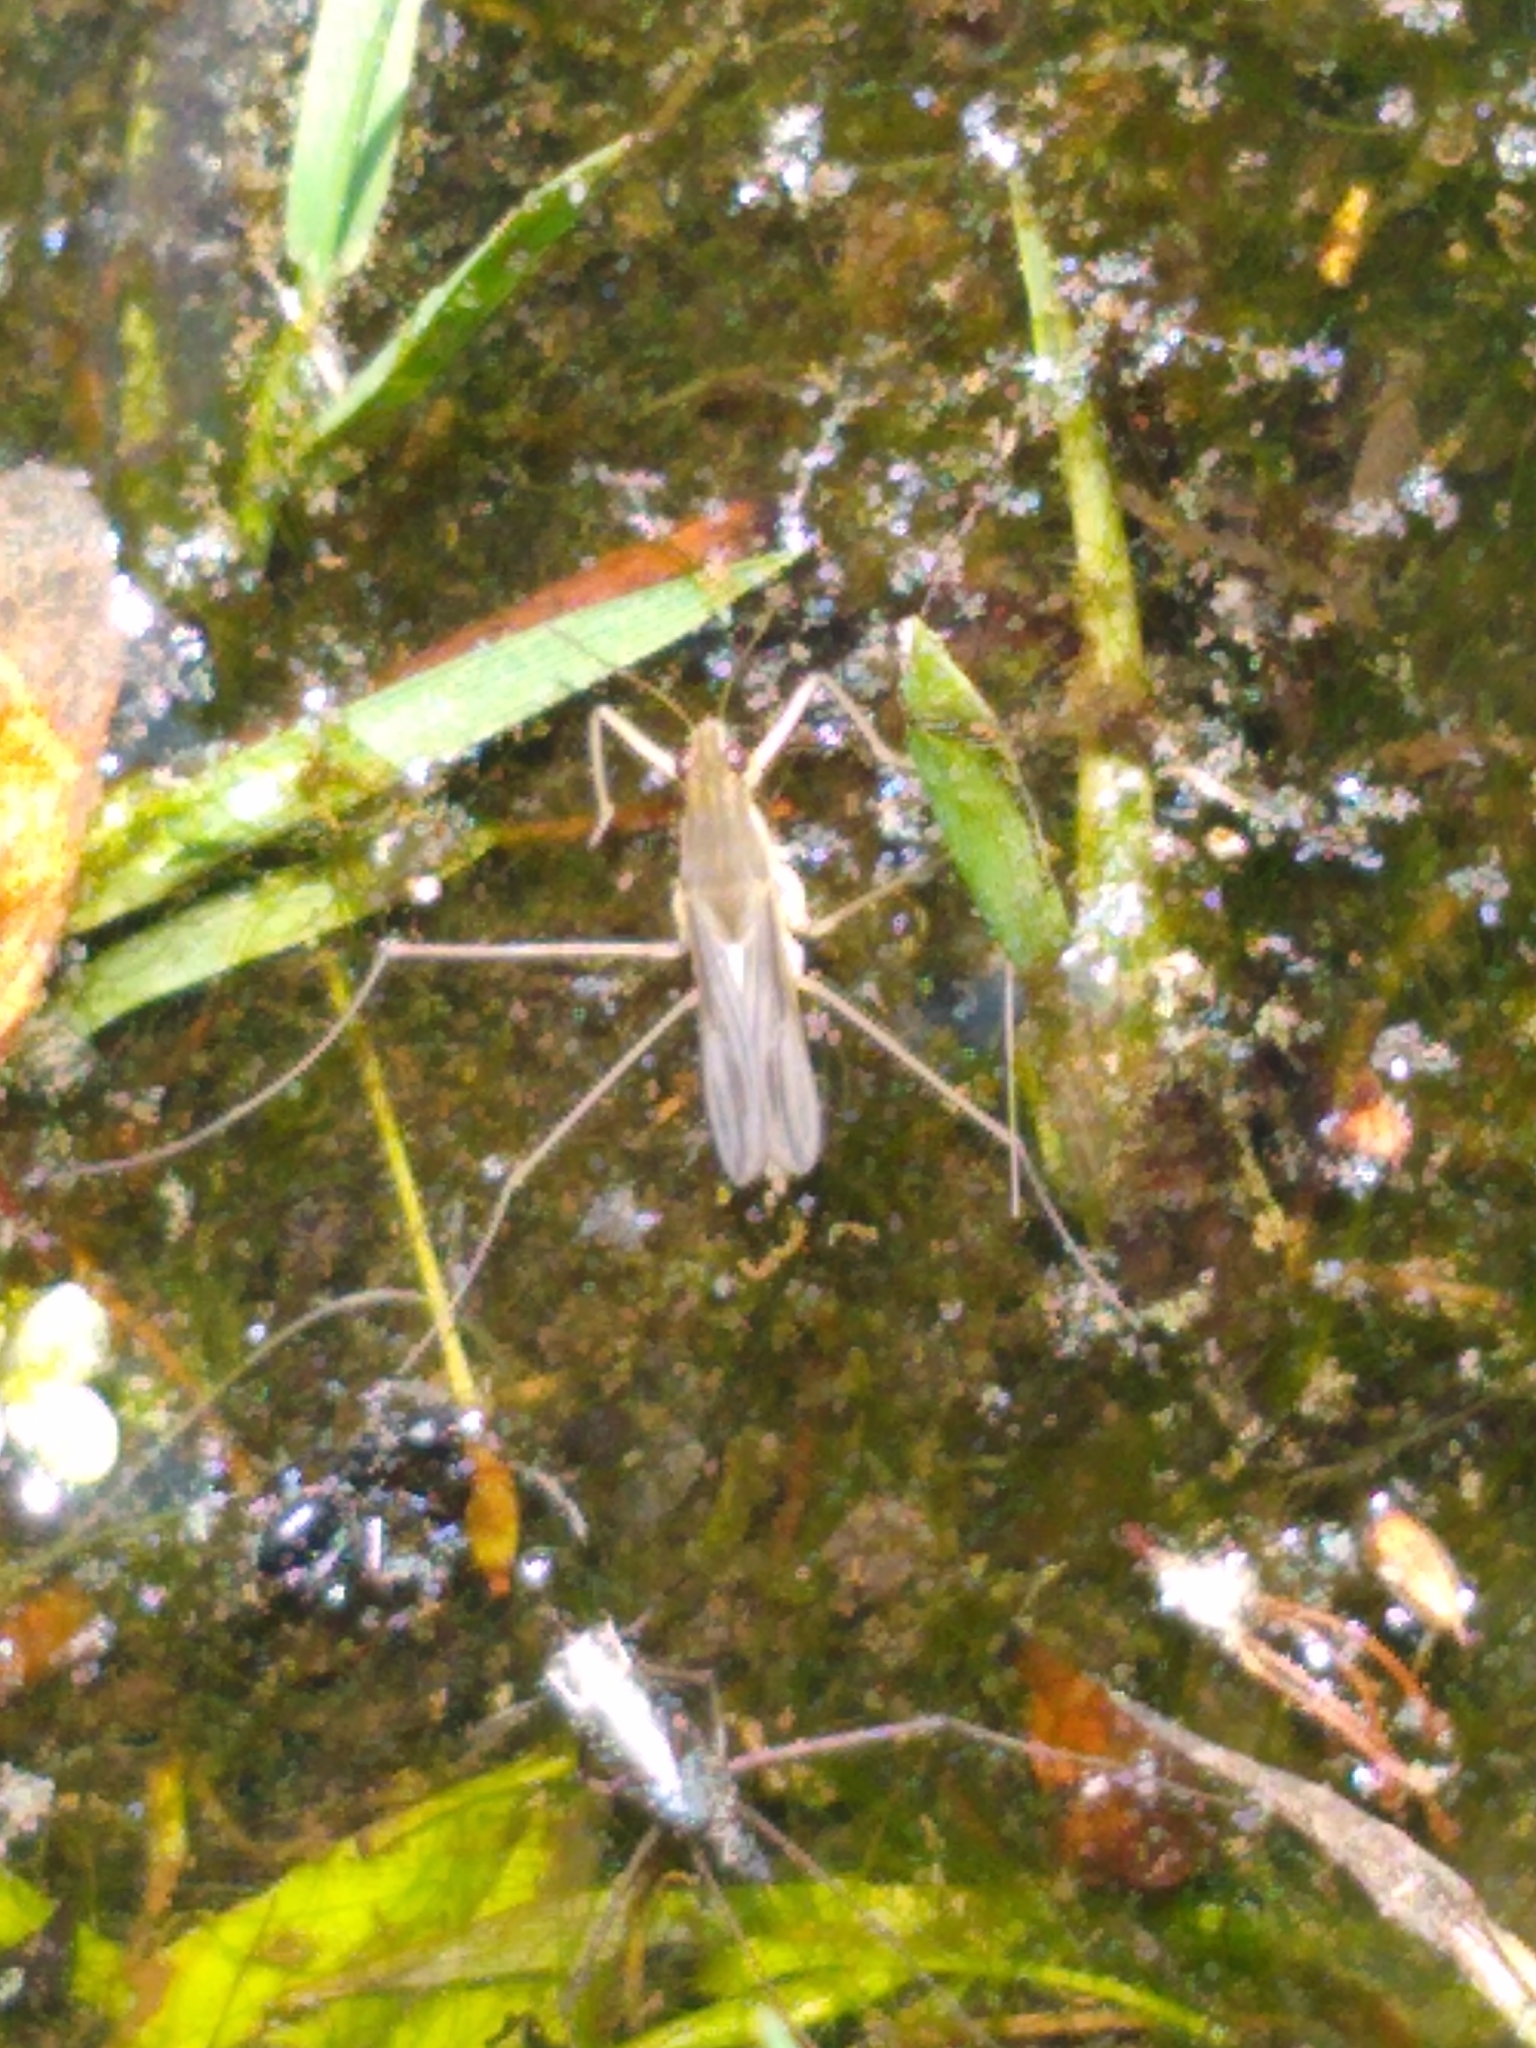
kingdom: Animalia
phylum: Arthropoda
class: Insecta
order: Hemiptera
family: Gerridae
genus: Gerris
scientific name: Gerris
